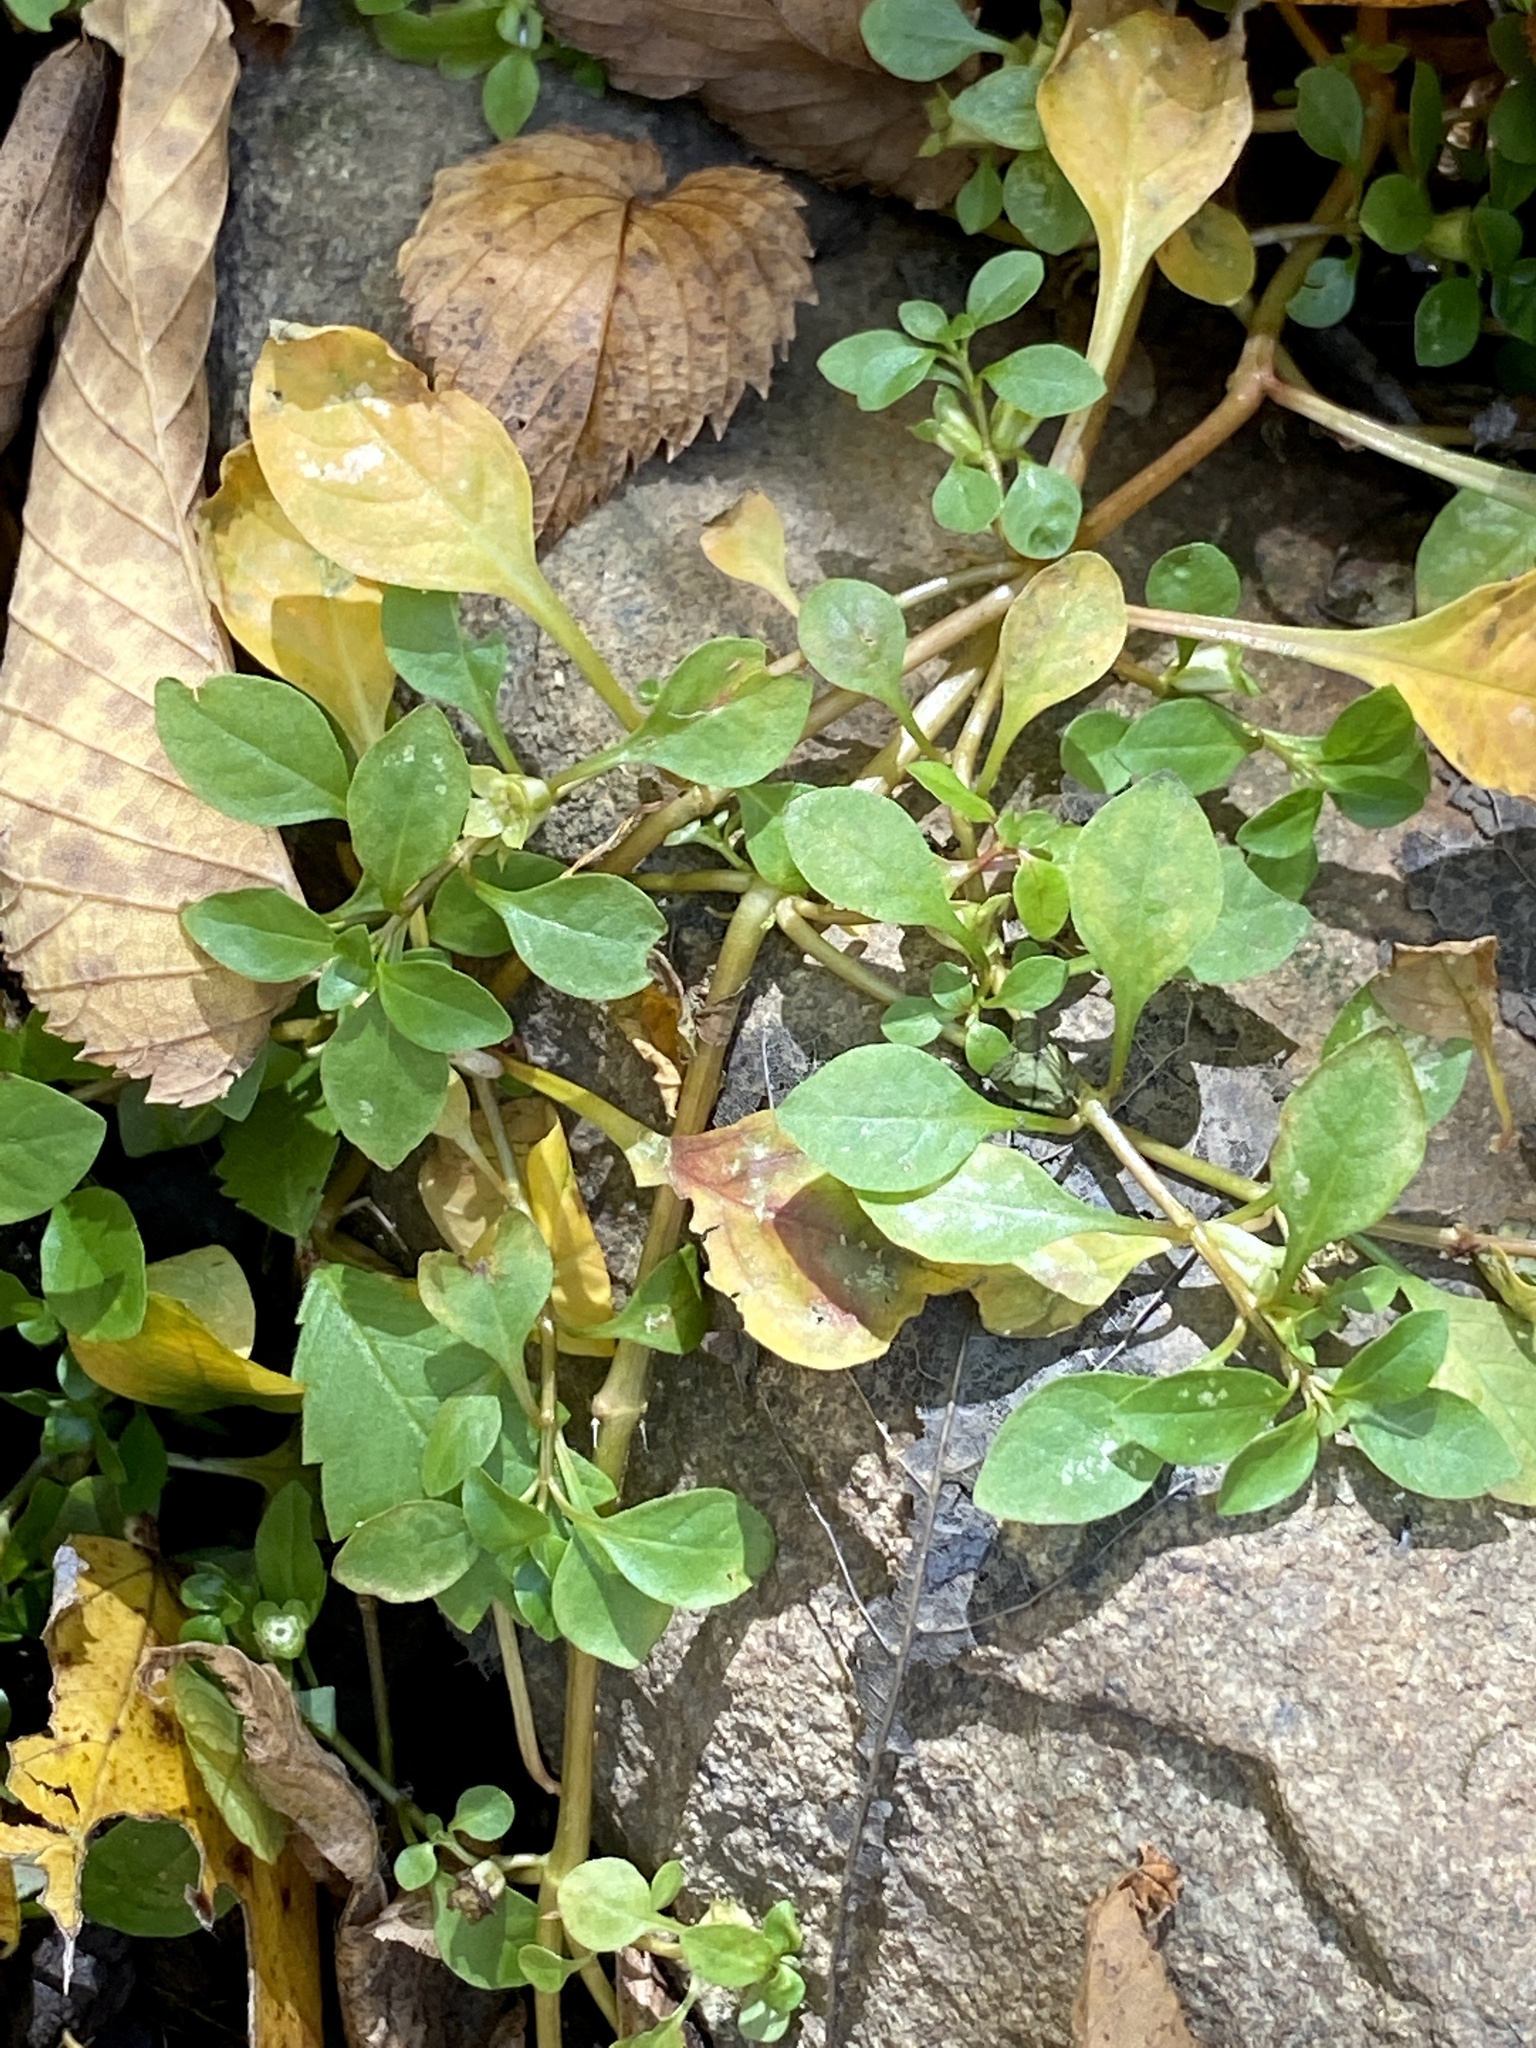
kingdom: Plantae
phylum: Tracheophyta
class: Magnoliopsida
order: Myrtales
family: Onagraceae
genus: Ludwigia
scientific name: Ludwigia palustris
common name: Hampshire-purslane
